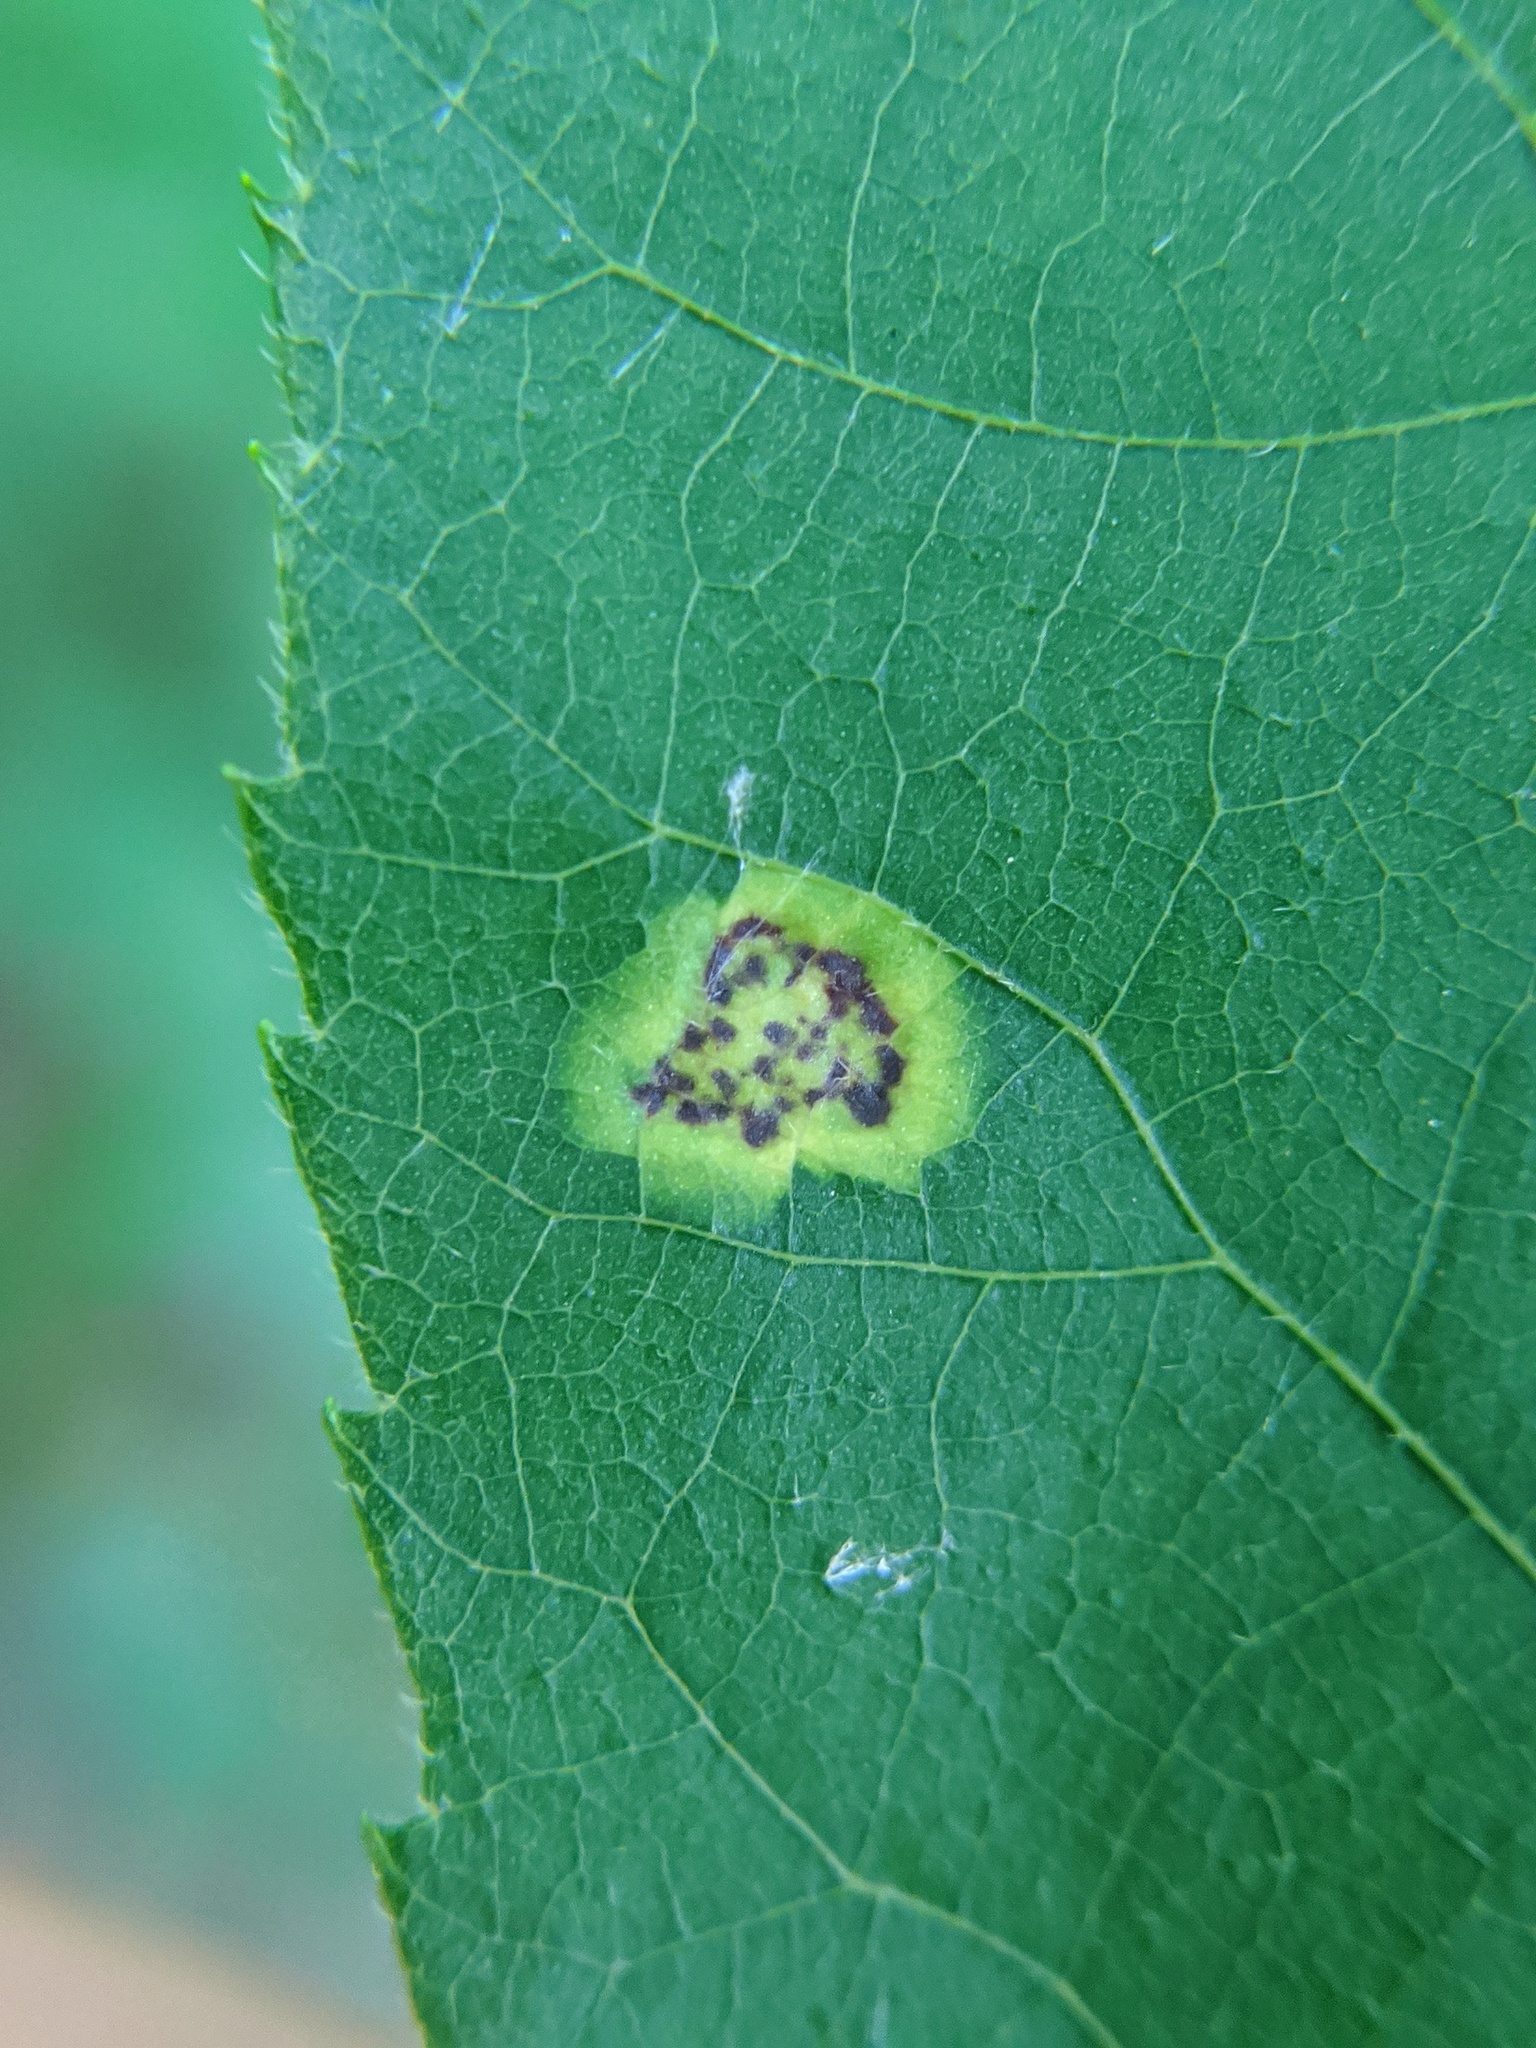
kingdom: Animalia
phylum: Arthropoda
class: Insecta
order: Diptera
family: Cecidomyiidae
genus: Gliaspilota
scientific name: Gliaspilota glutinosa
